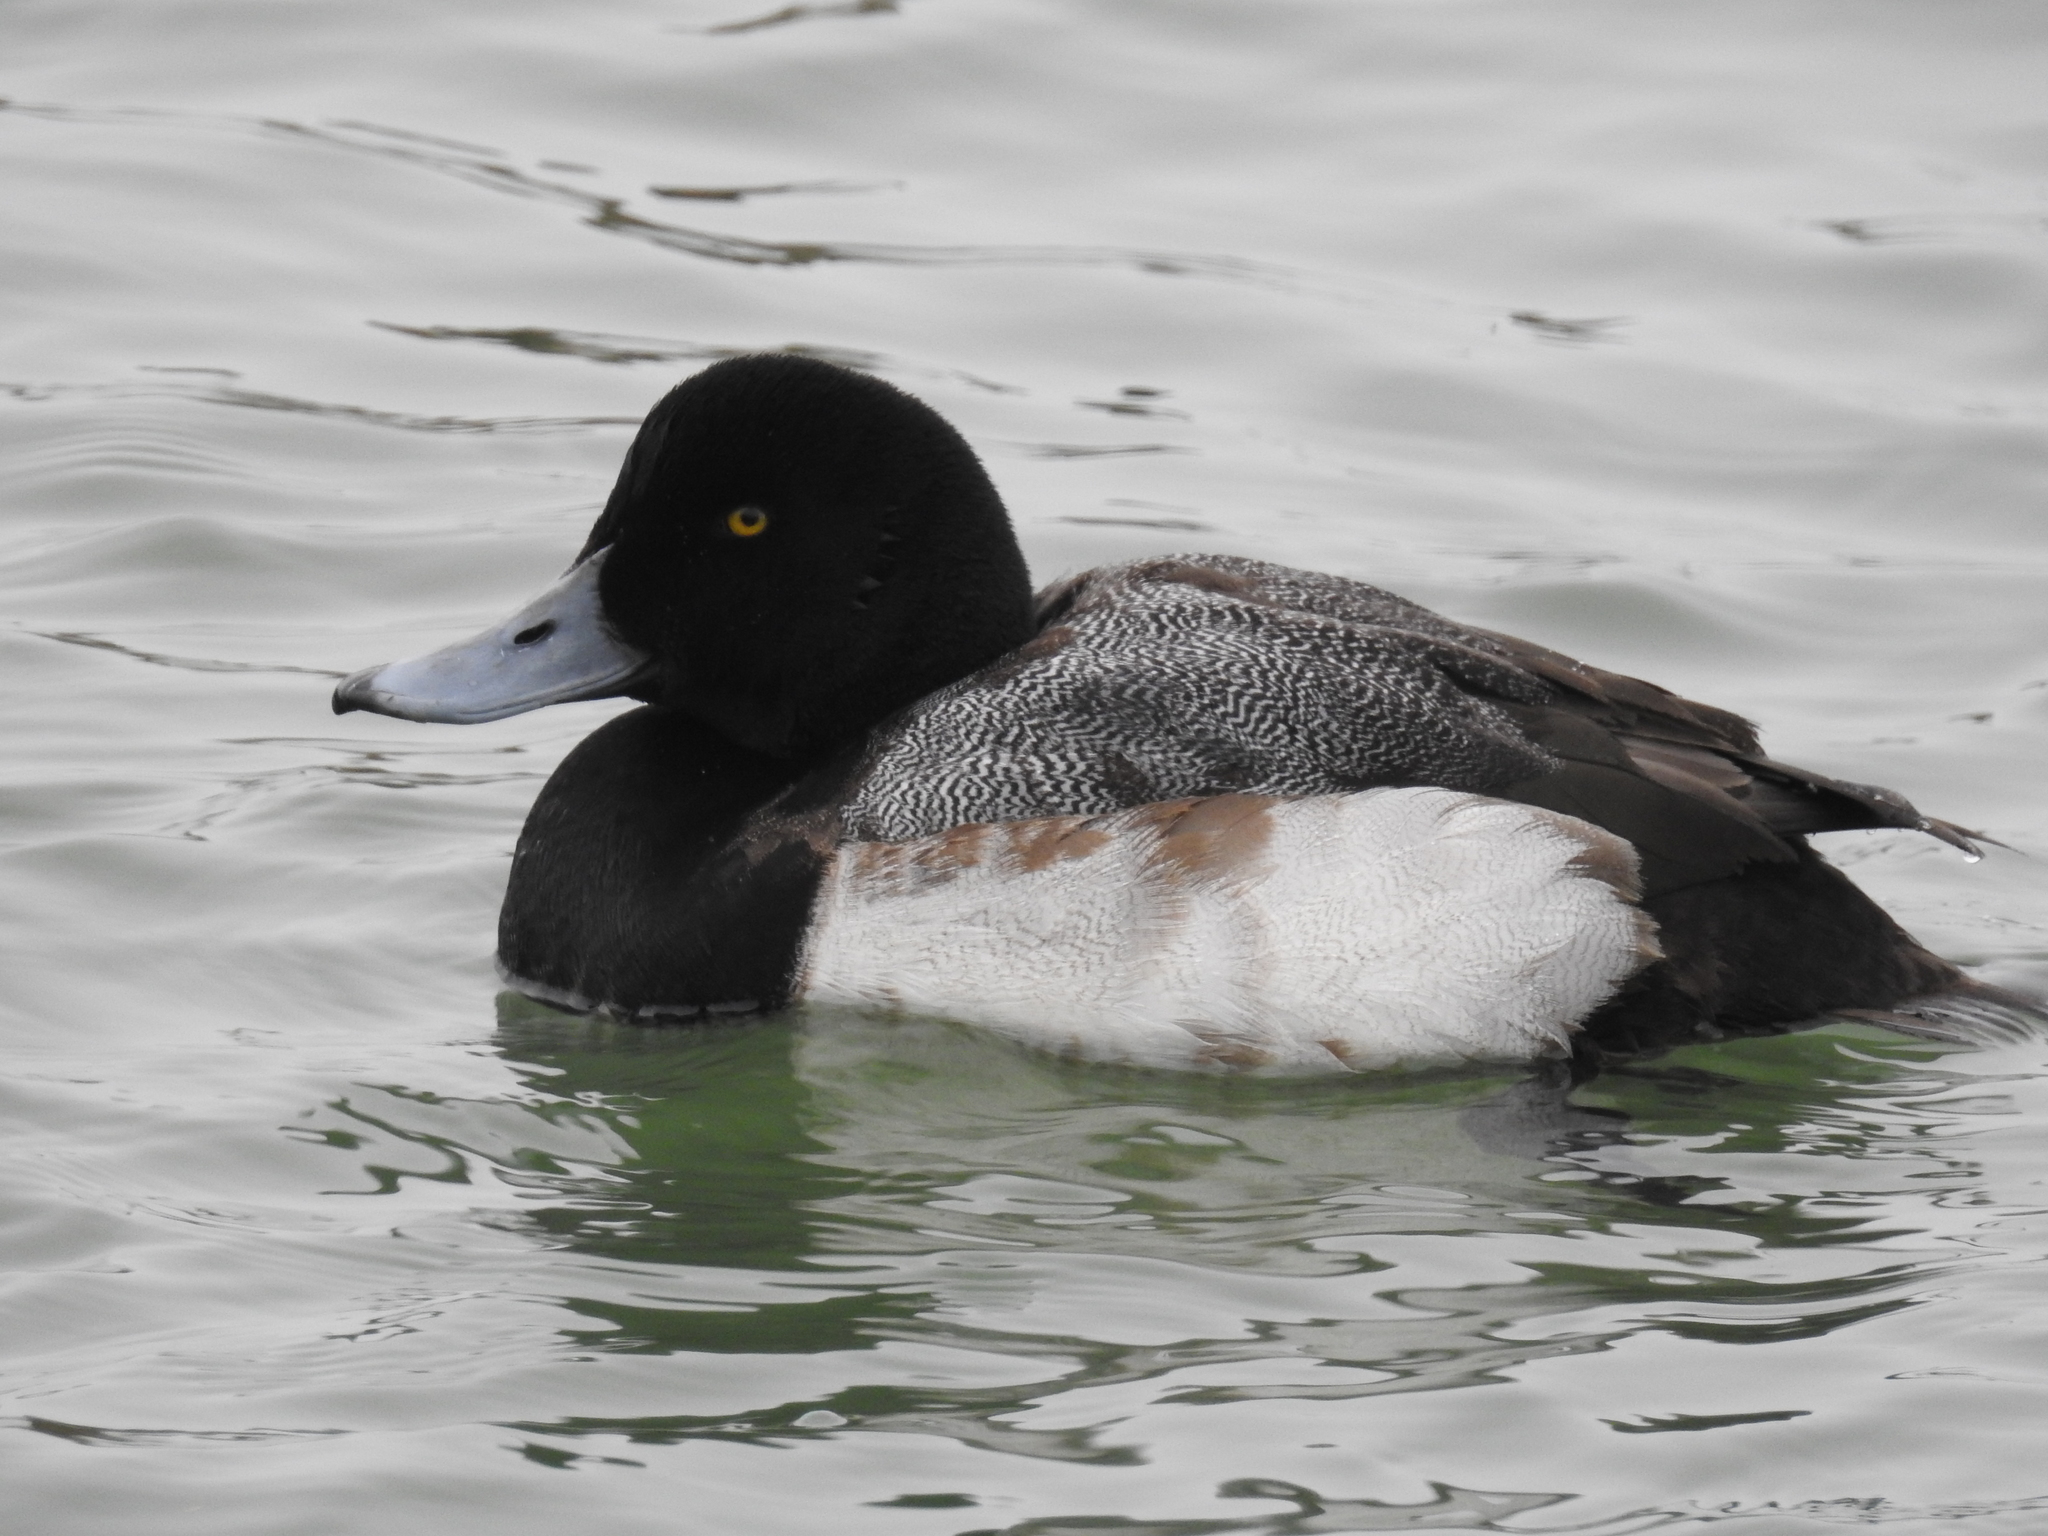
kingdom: Animalia
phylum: Chordata
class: Aves
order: Anseriformes
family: Anatidae
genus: Aythya
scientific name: Aythya marila
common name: Greater scaup
